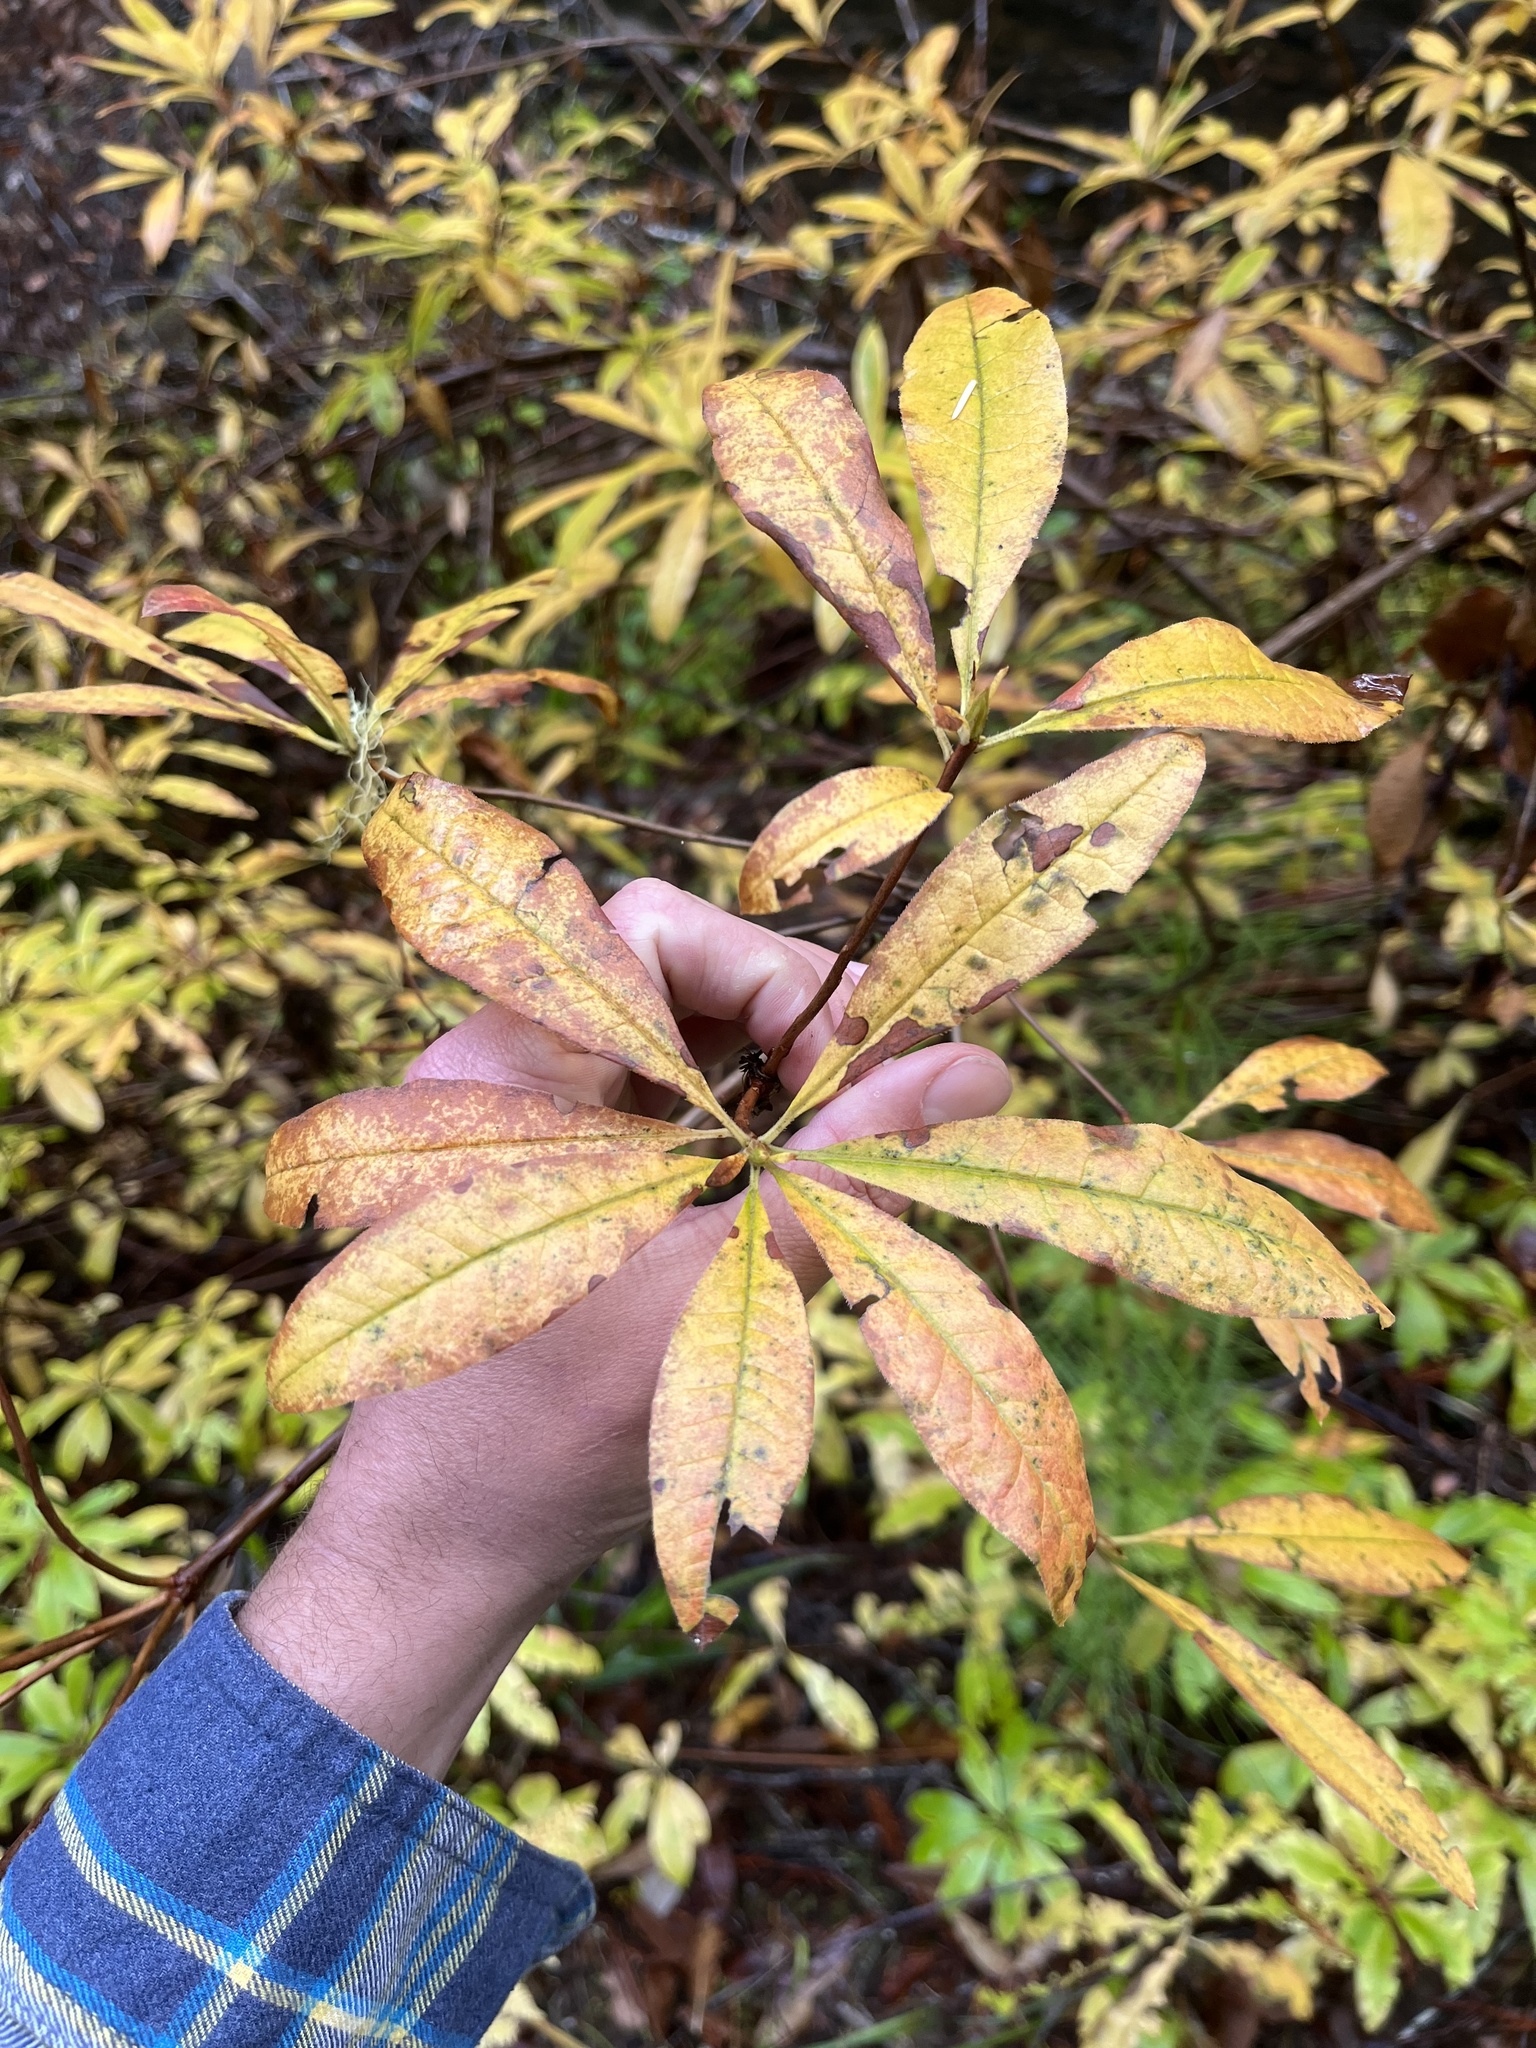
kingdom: Plantae
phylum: Tracheophyta
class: Magnoliopsida
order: Ericales
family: Ericaceae
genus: Rhododendron
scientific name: Rhododendron occidentale
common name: Western azalea
